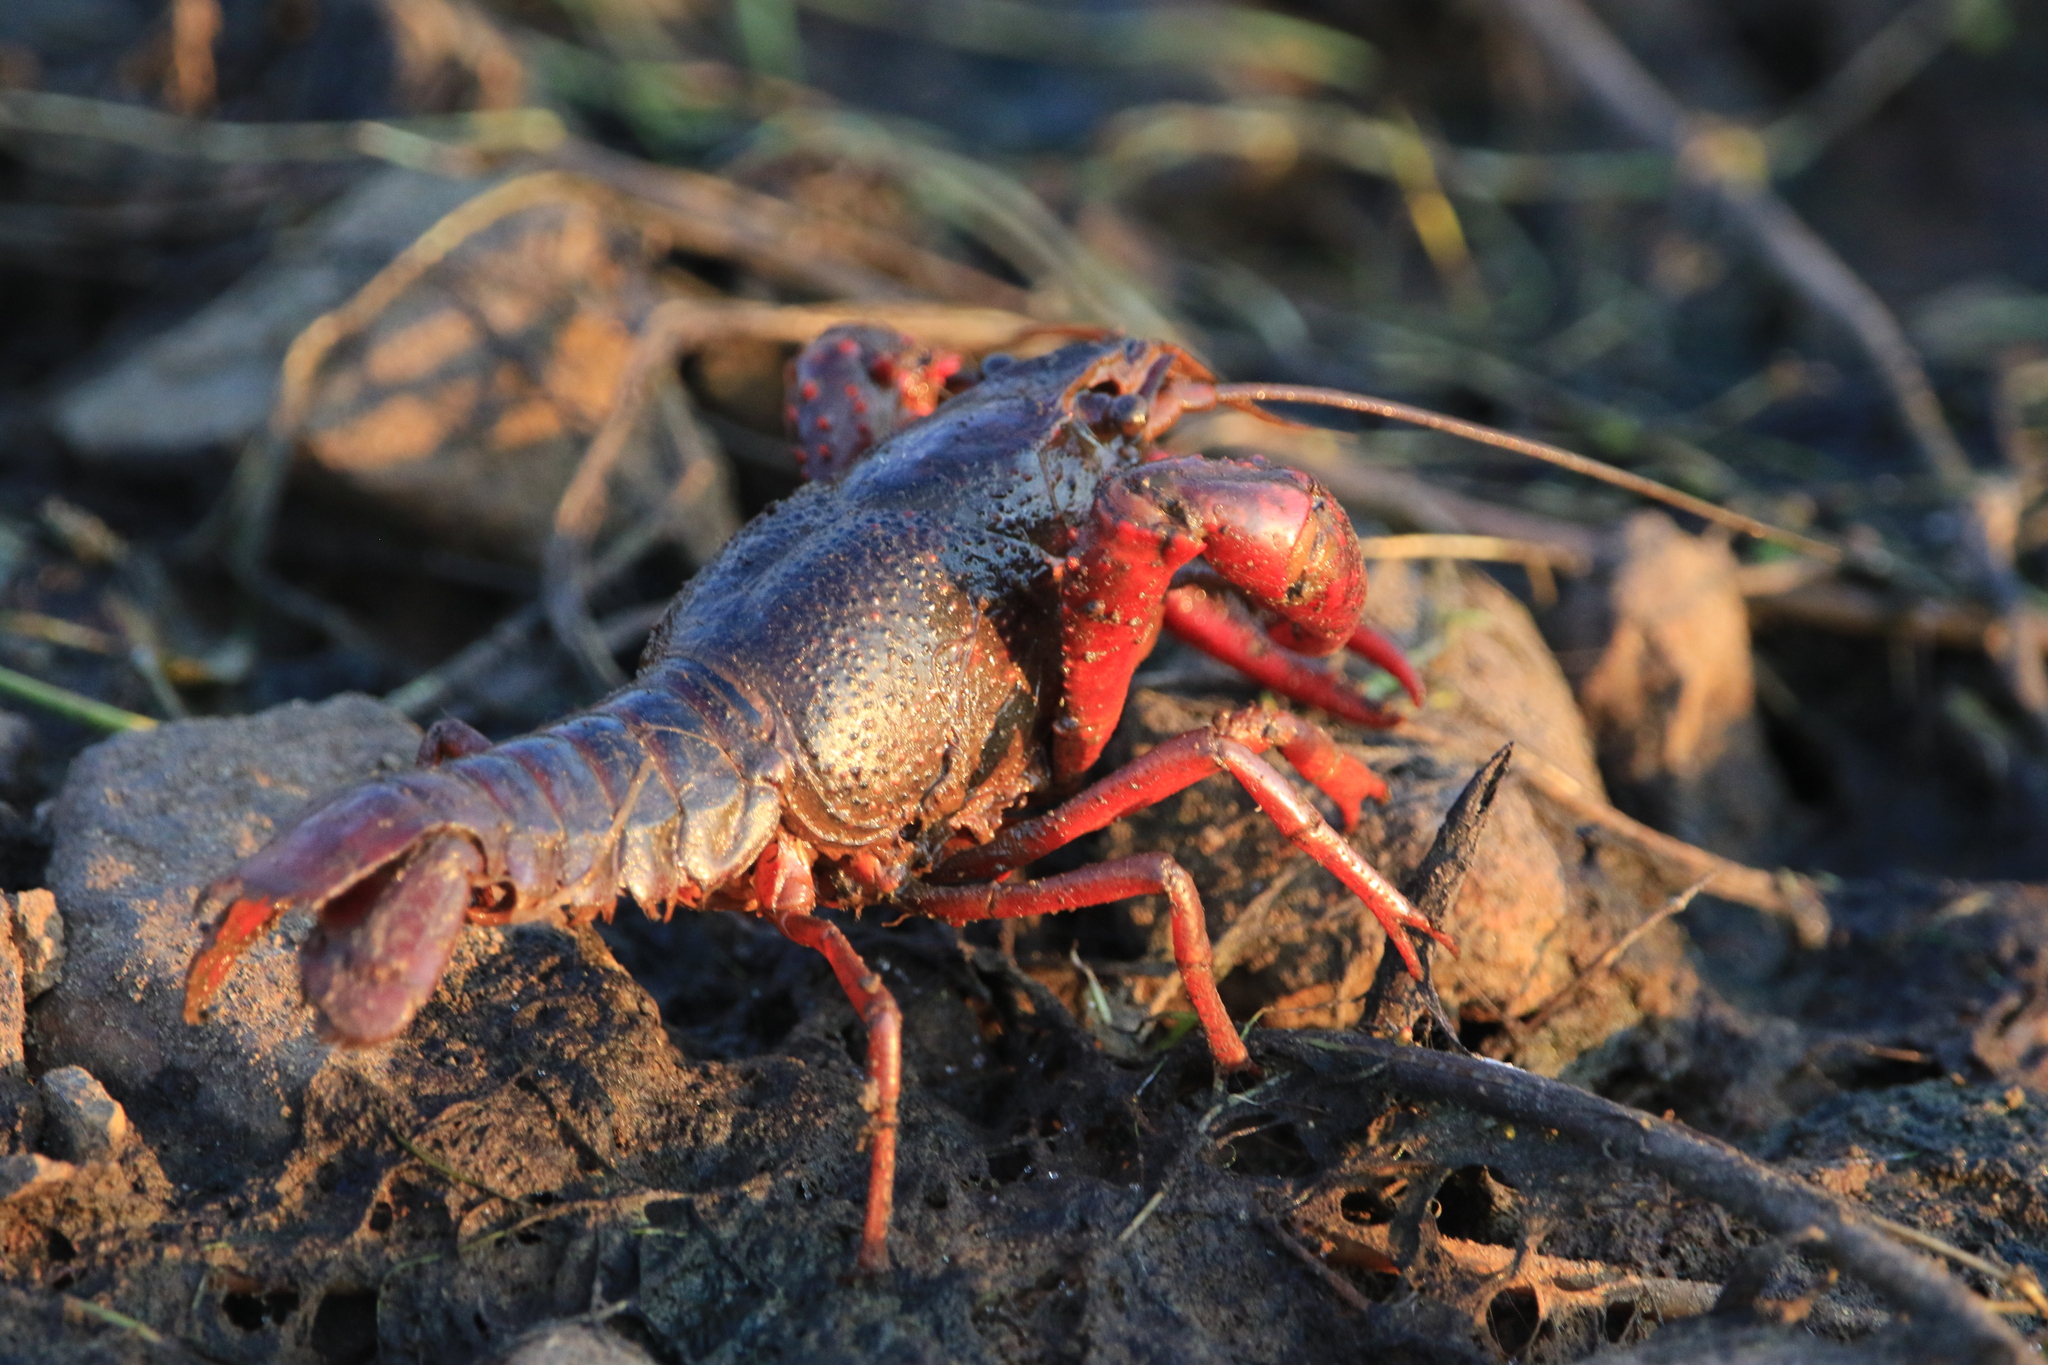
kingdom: Animalia
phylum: Arthropoda
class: Malacostraca
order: Decapoda
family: Cambaridae
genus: Procambarus
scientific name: Procambarus clarkii
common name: Red swamp crayfish
